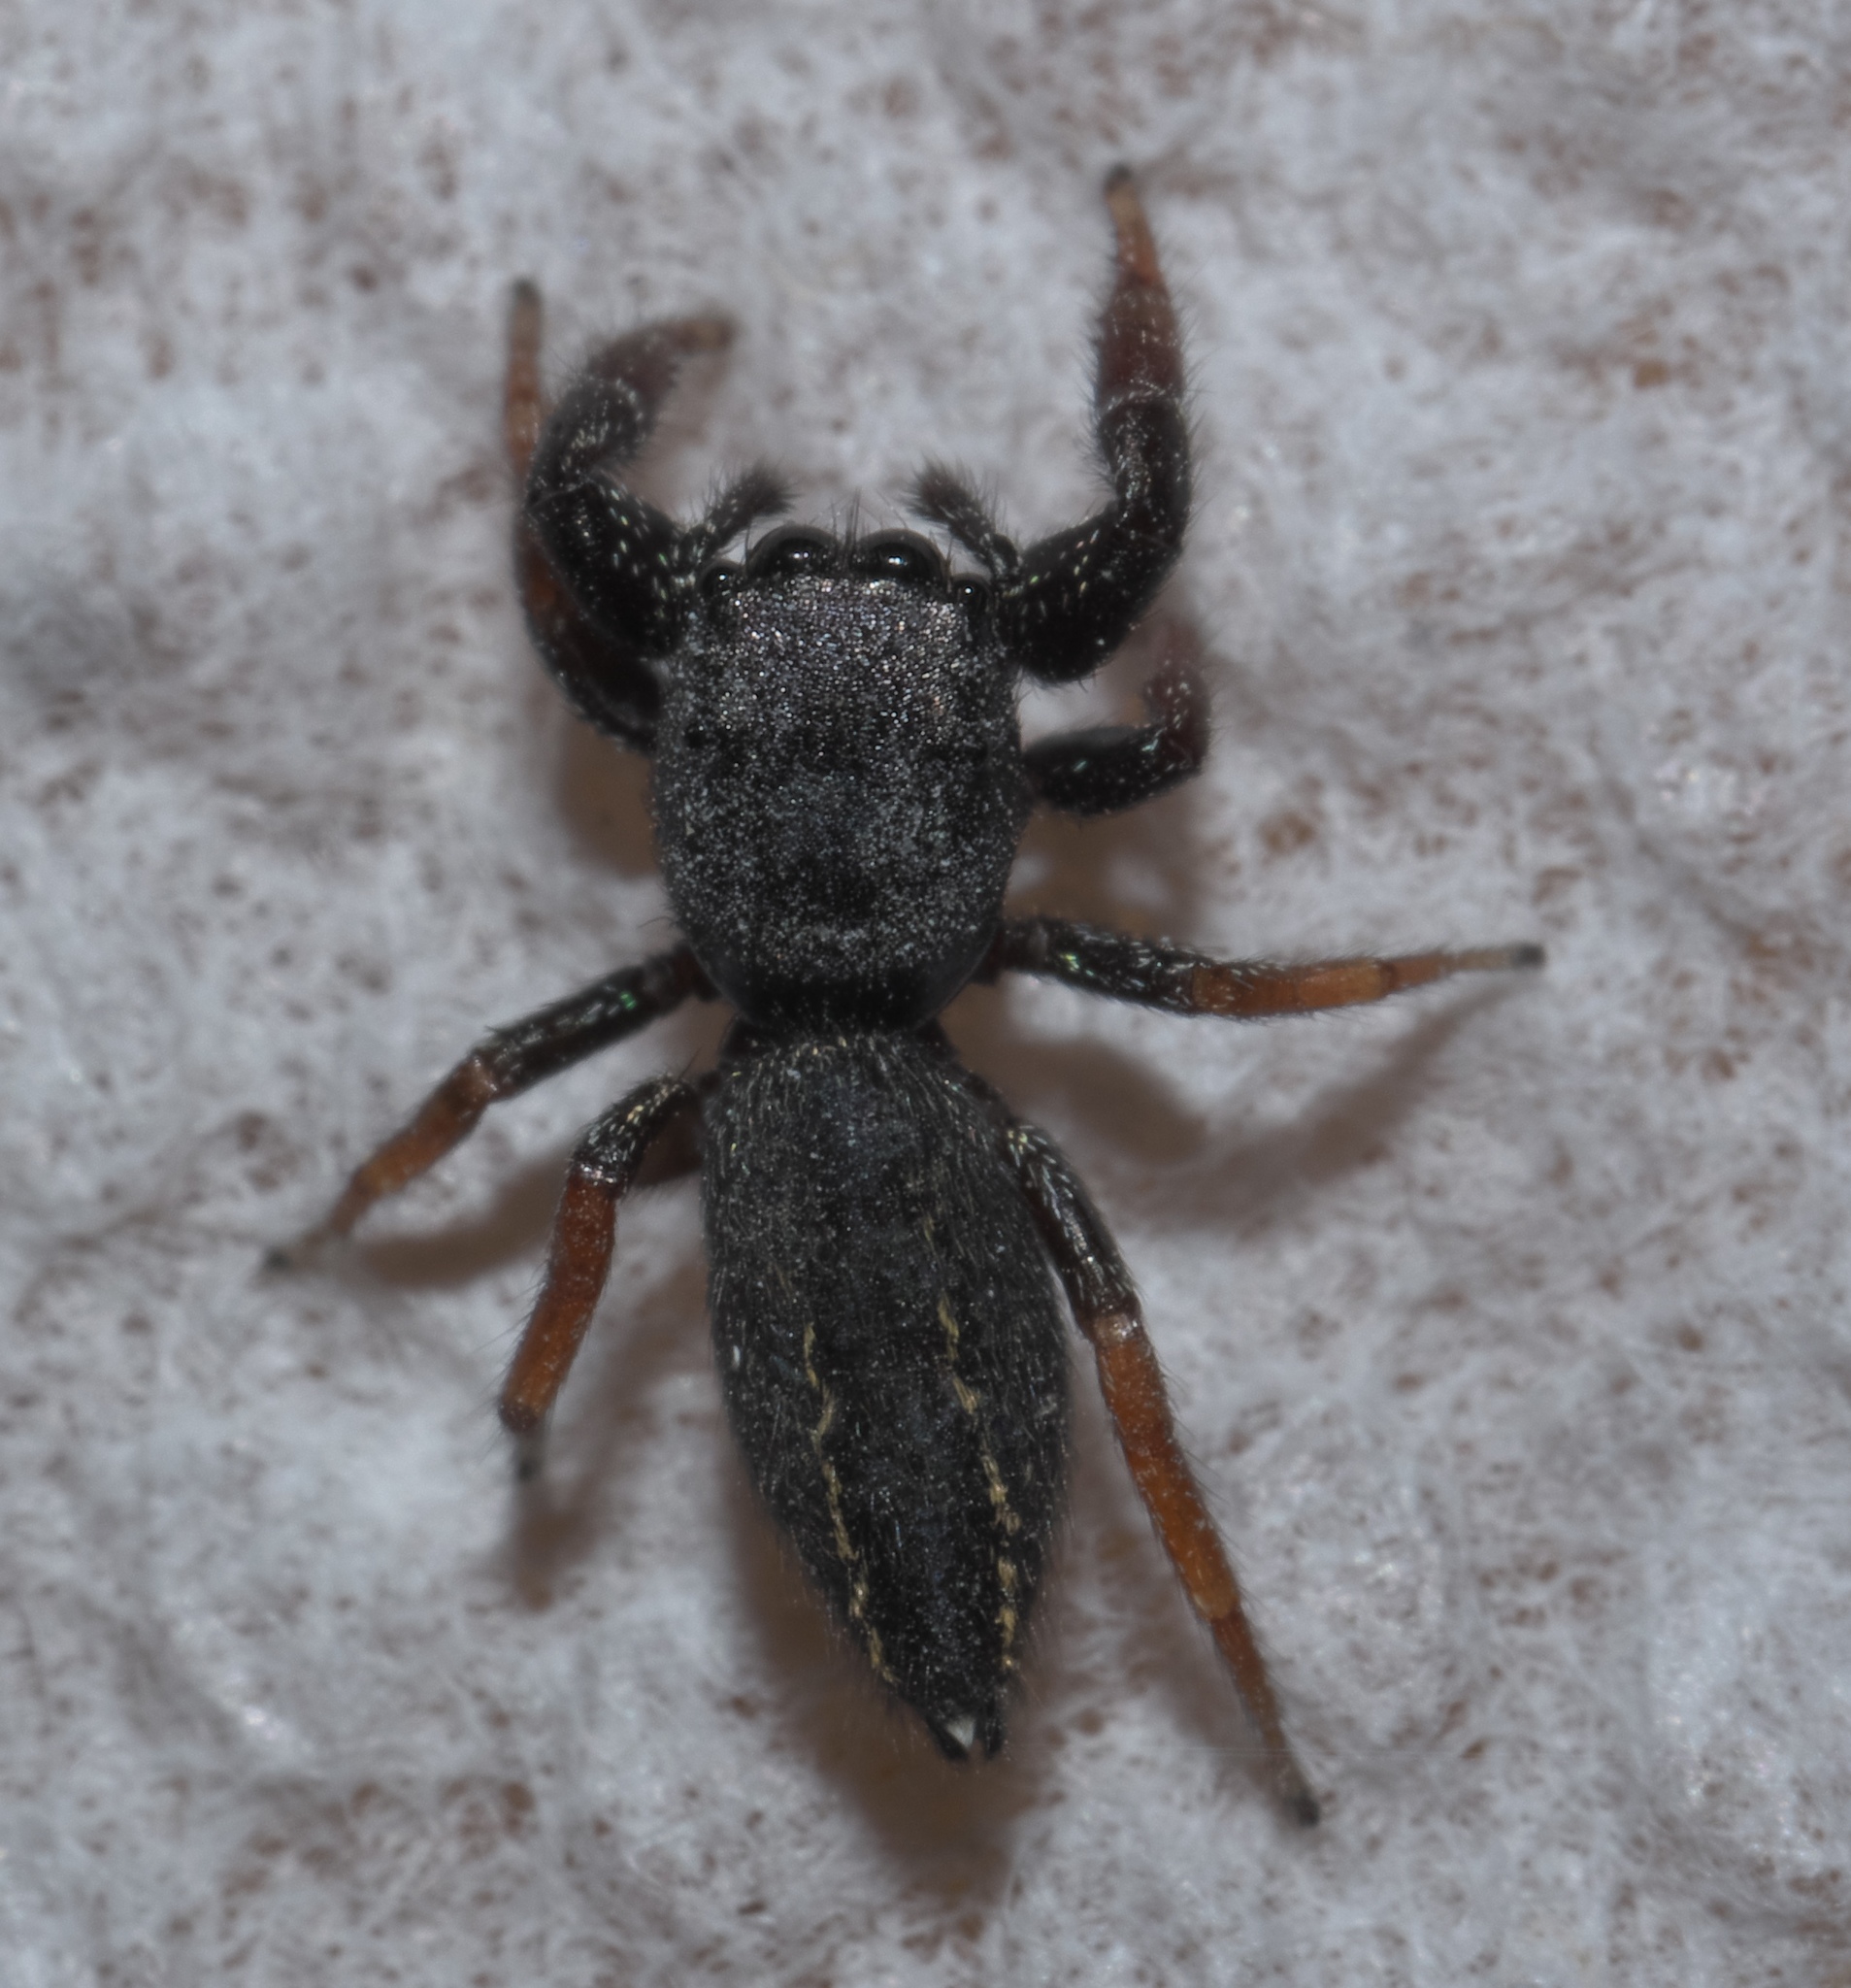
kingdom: Animalia
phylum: Arthropoda
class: Arachnida
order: Araneae
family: Salticidae
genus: Metacyrba
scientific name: Metacyrba taeniola
